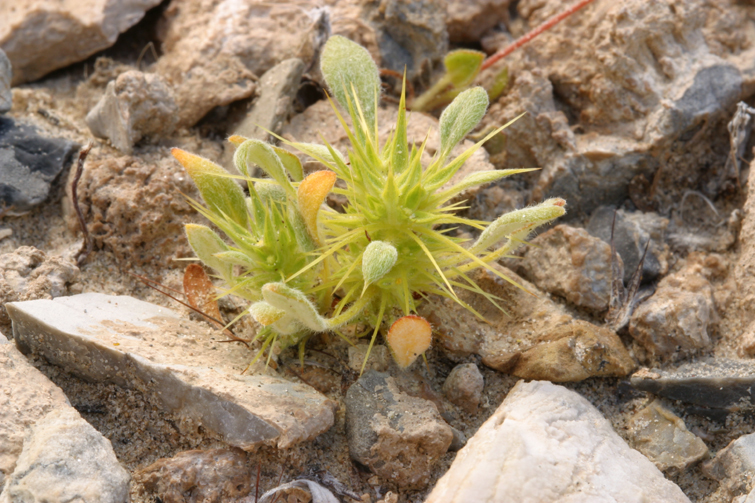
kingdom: Plantae
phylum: Tracheophyta
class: Magnoliopsida
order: Caryophyllales
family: Polygonaceae
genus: Chorizanthe
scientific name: Chorizanthe rigida
